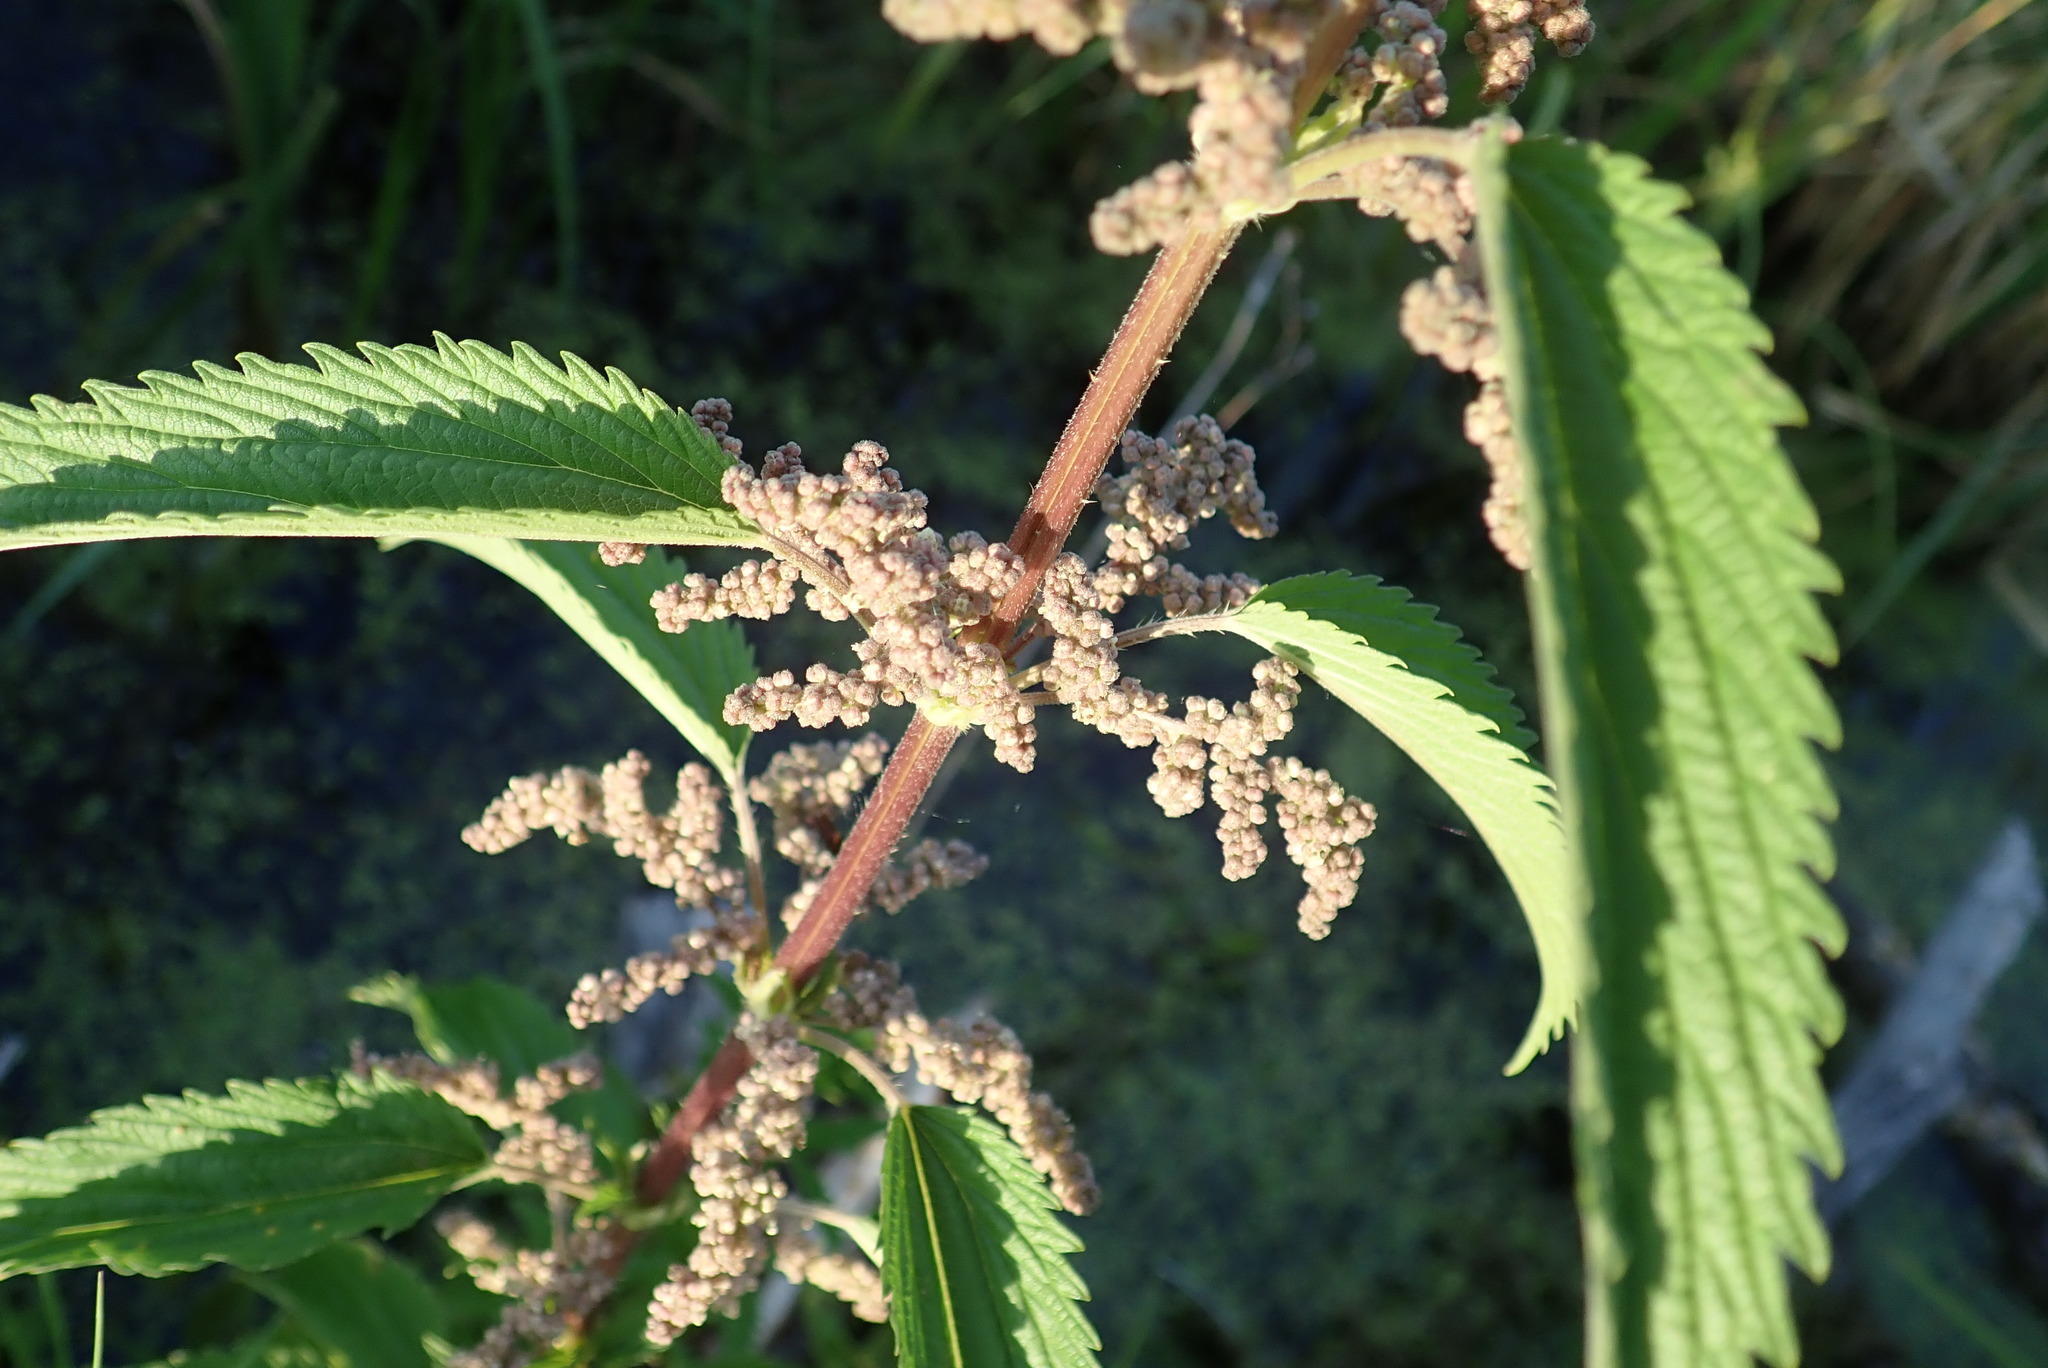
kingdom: Plantae
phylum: Tracheophyta
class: Magnoliopsida
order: Rosales
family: Urticaceae
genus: Urtica
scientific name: Urtica dioica
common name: Common nettle
